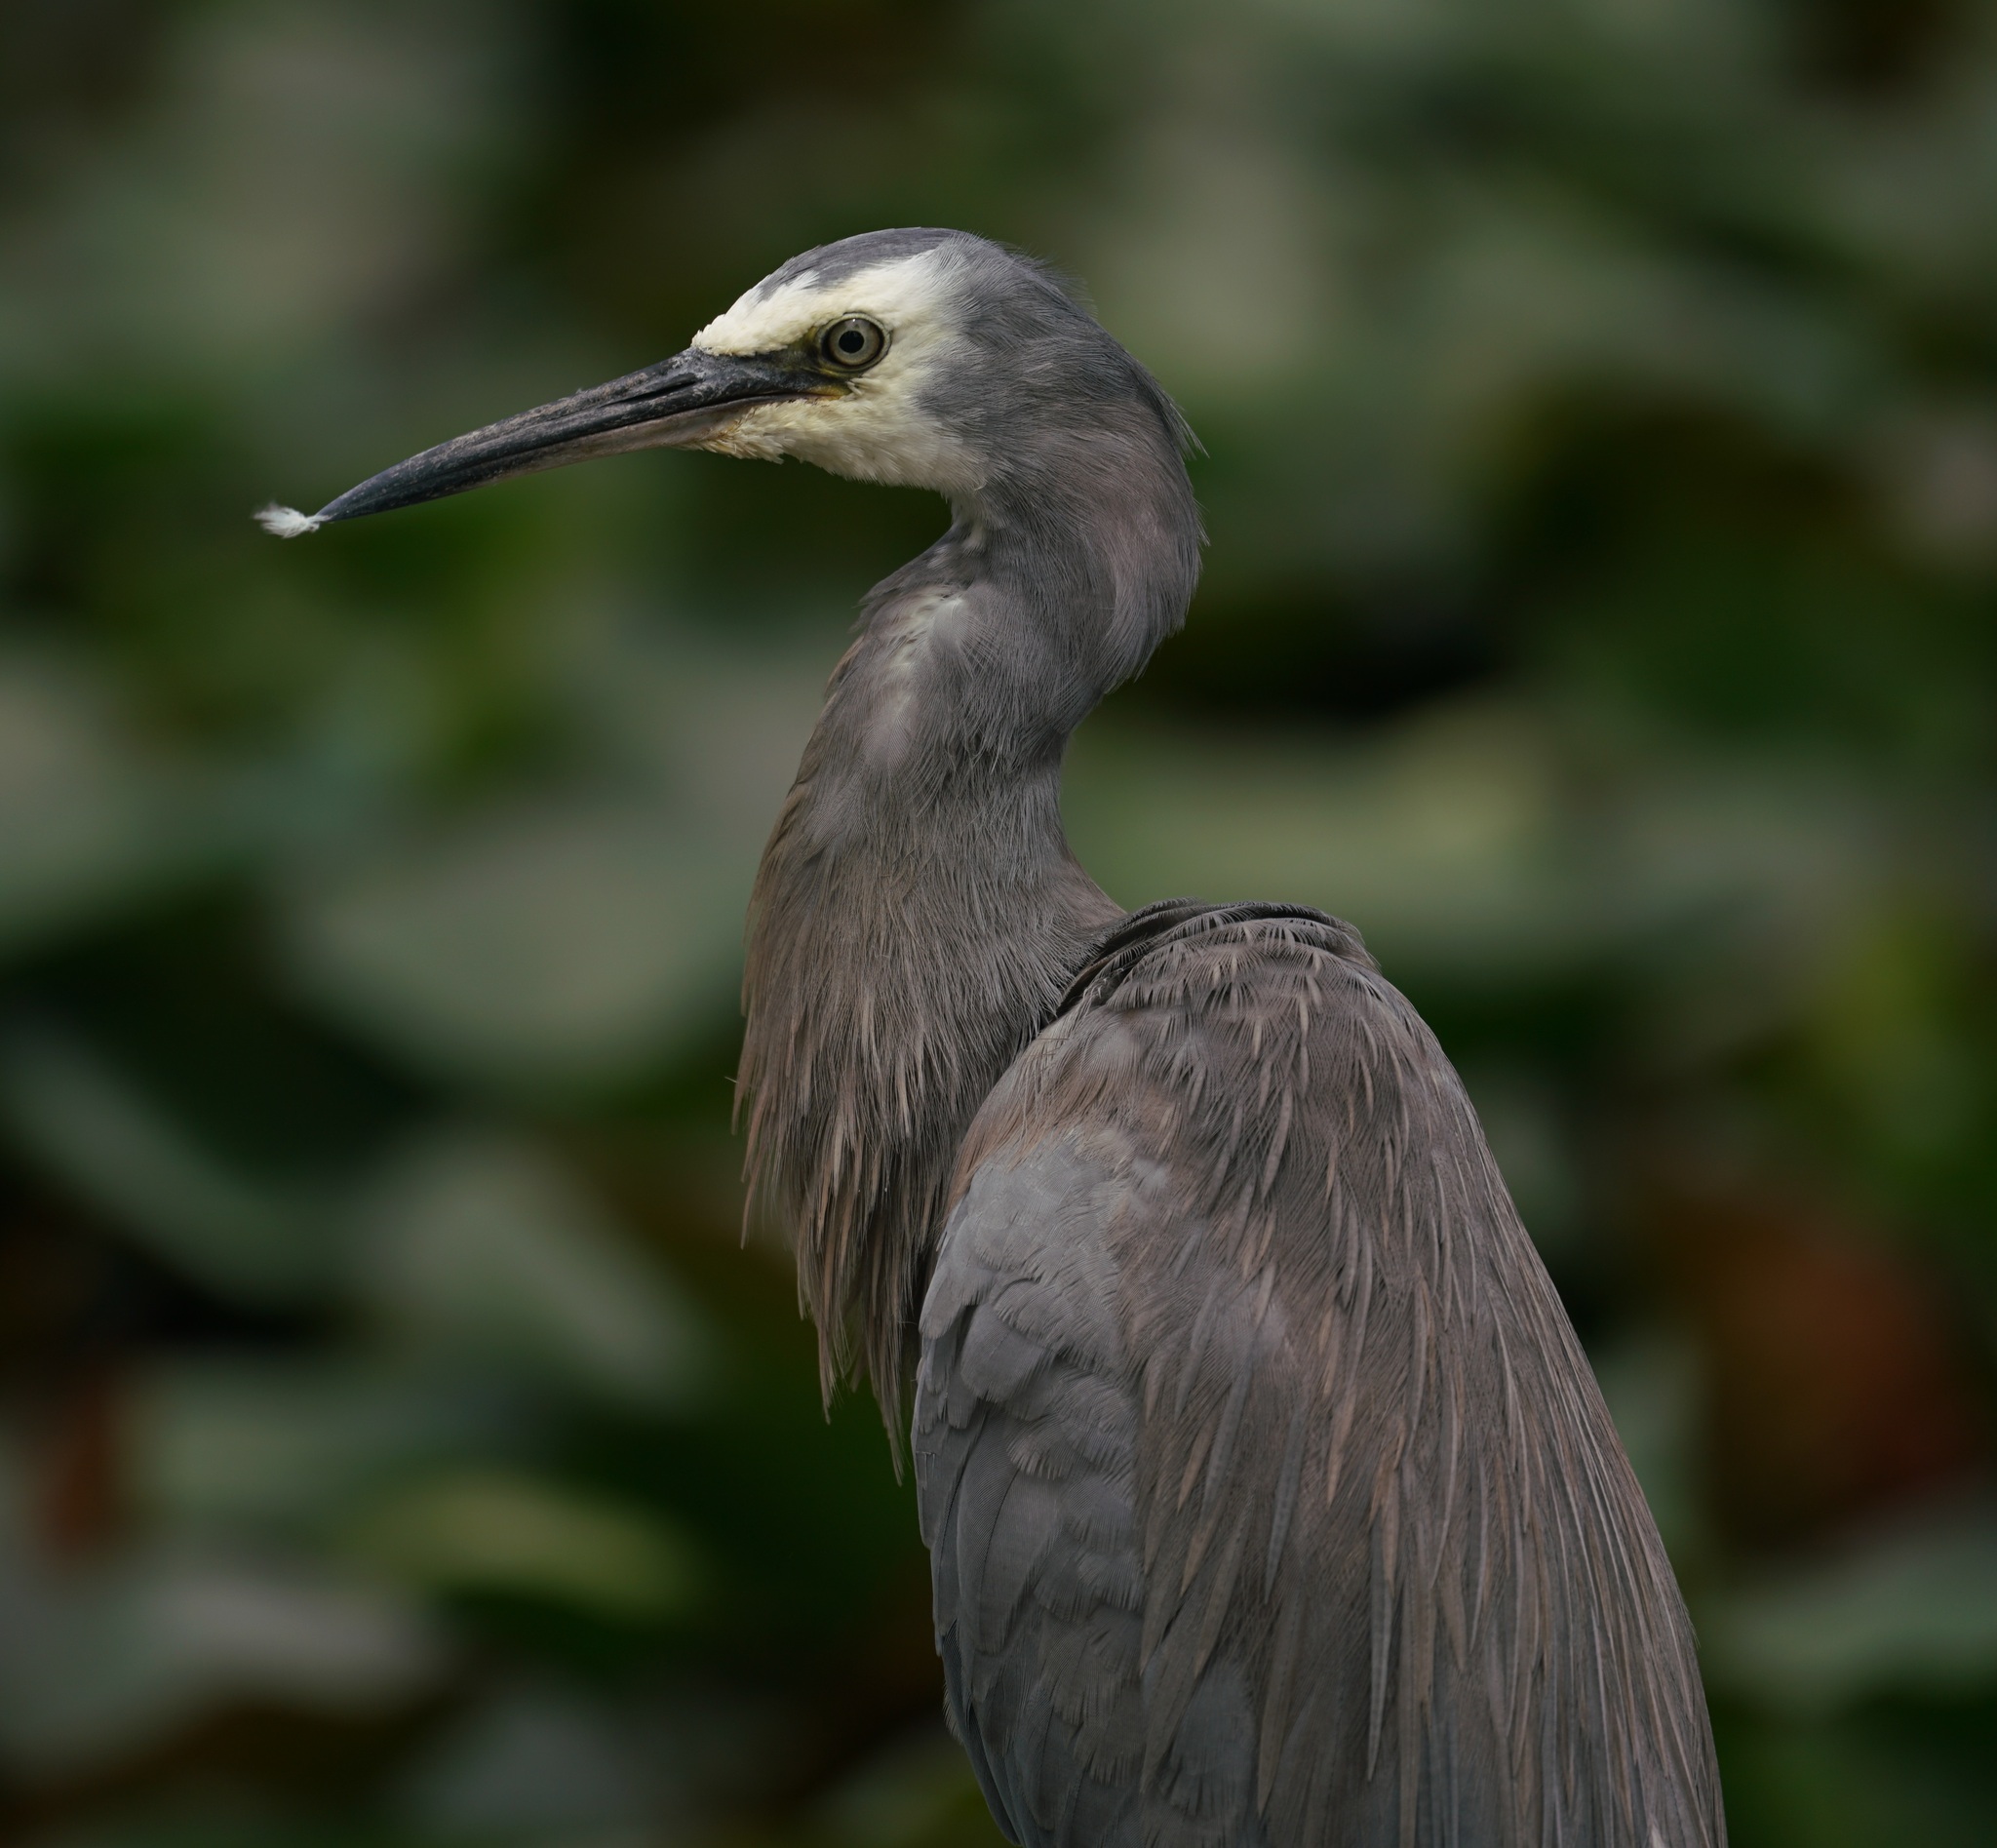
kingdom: Animalia
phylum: Chordata
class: Aves
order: Pelecaniformes
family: Ardeidae
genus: Egretta
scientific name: Egretta novaehollandiae
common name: White-faced heron
